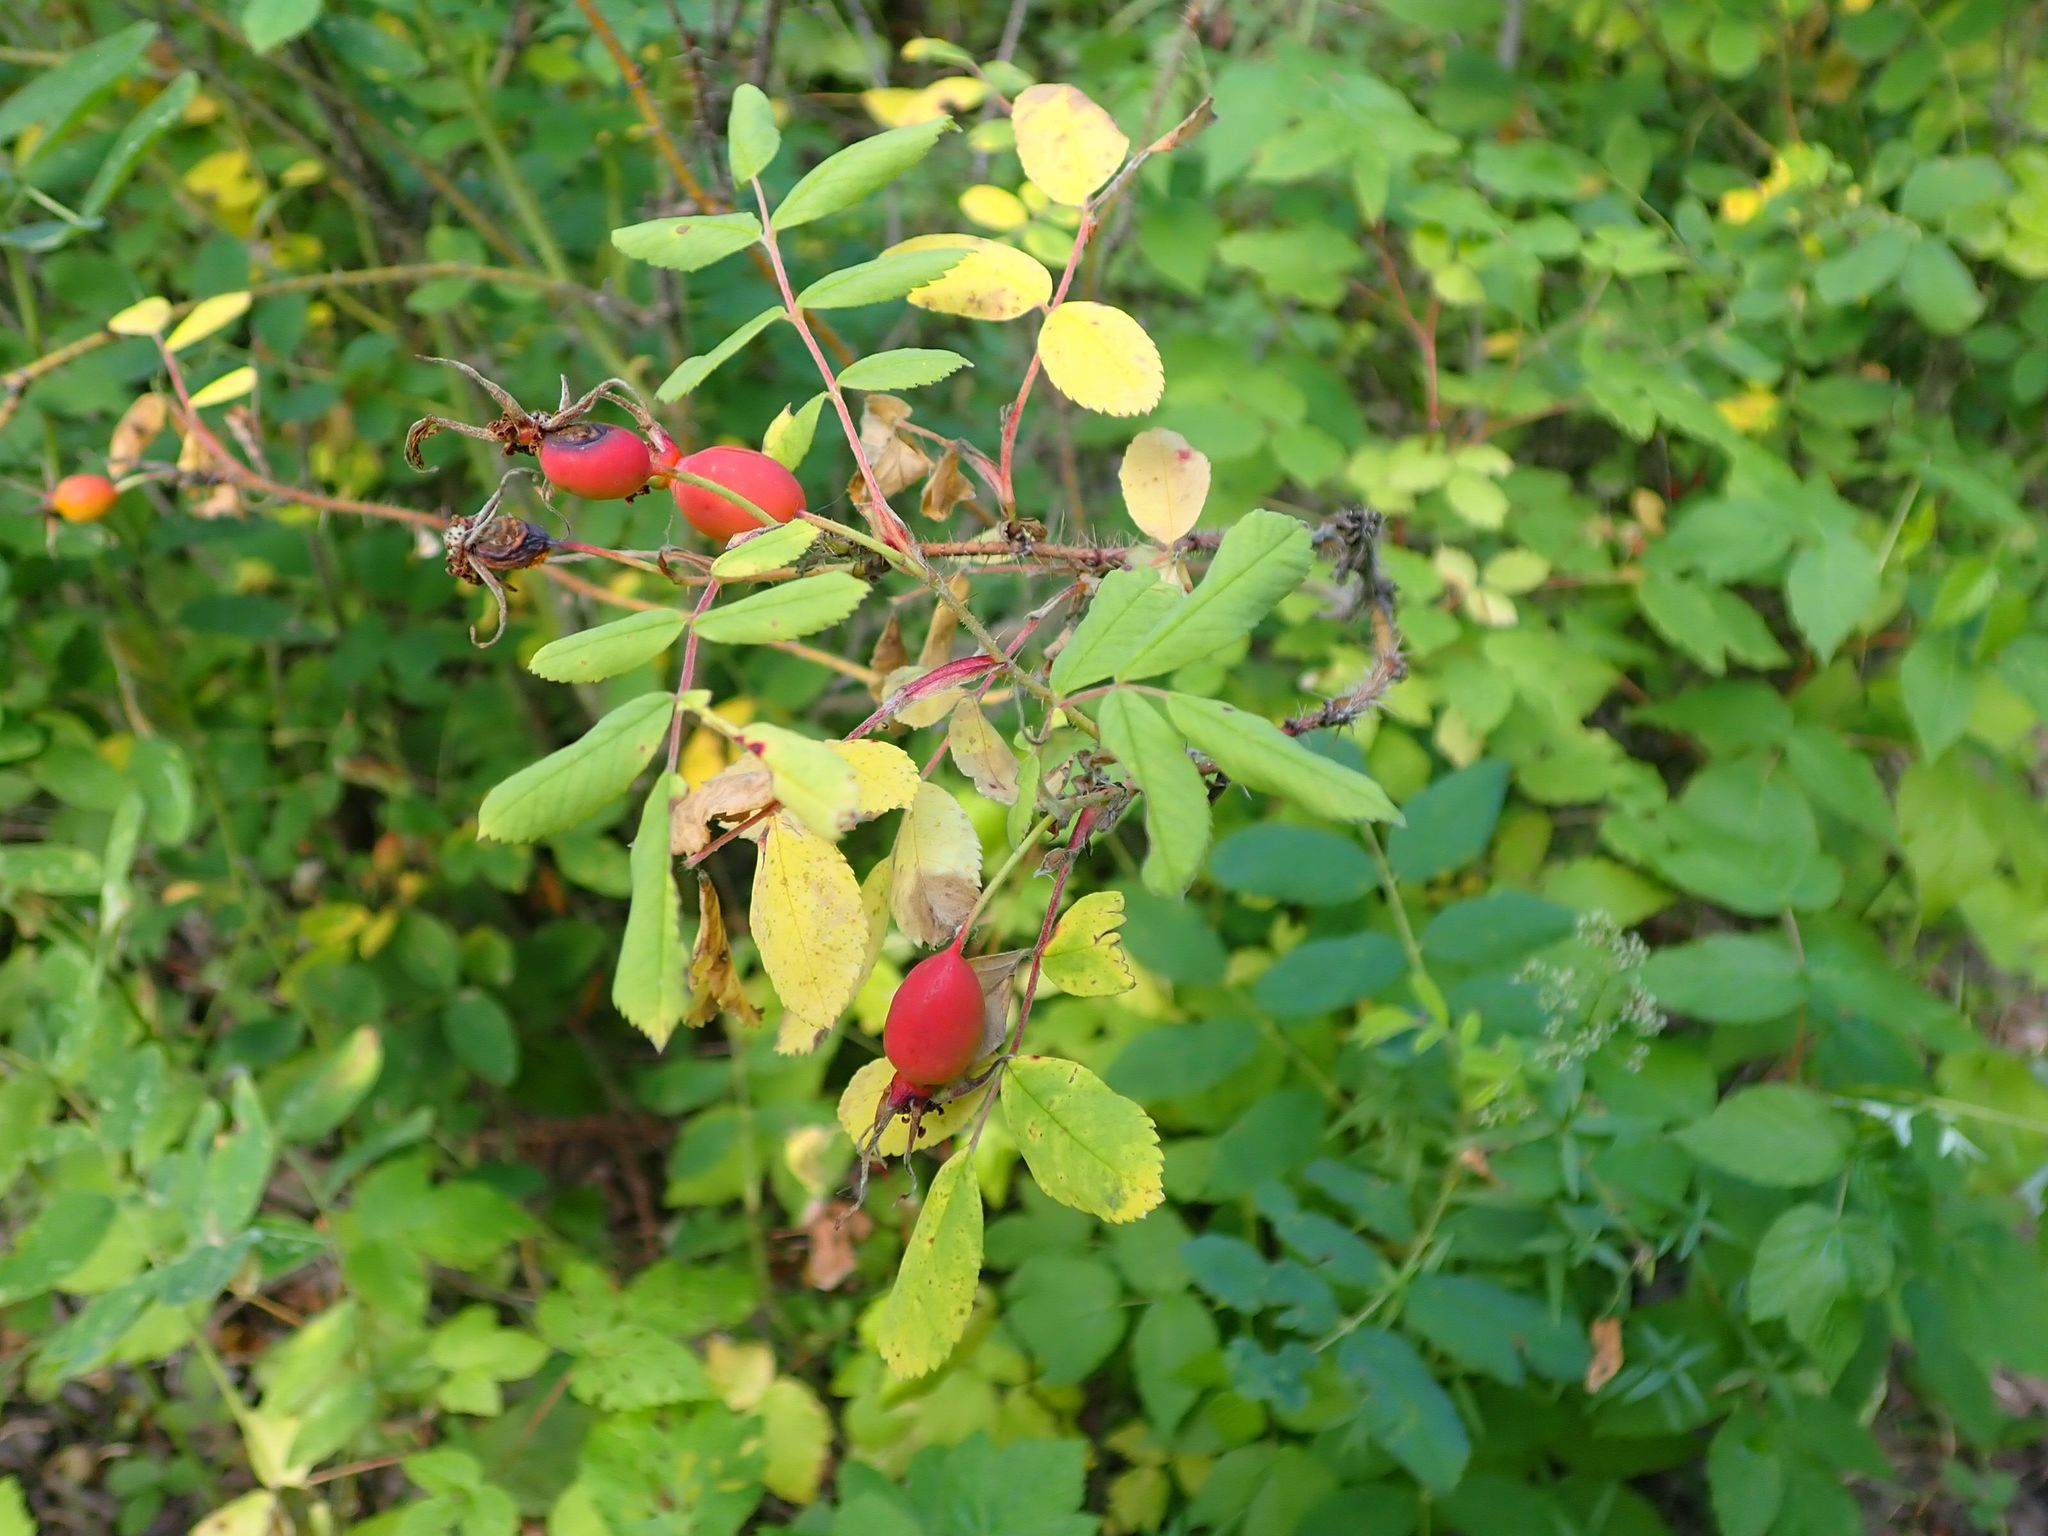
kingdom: Plantae
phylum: Tracheophyta
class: Magnoliopsida
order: Rosales
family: Rosaceae
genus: Rosa
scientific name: Rosa acicularis
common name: Prickly rose
